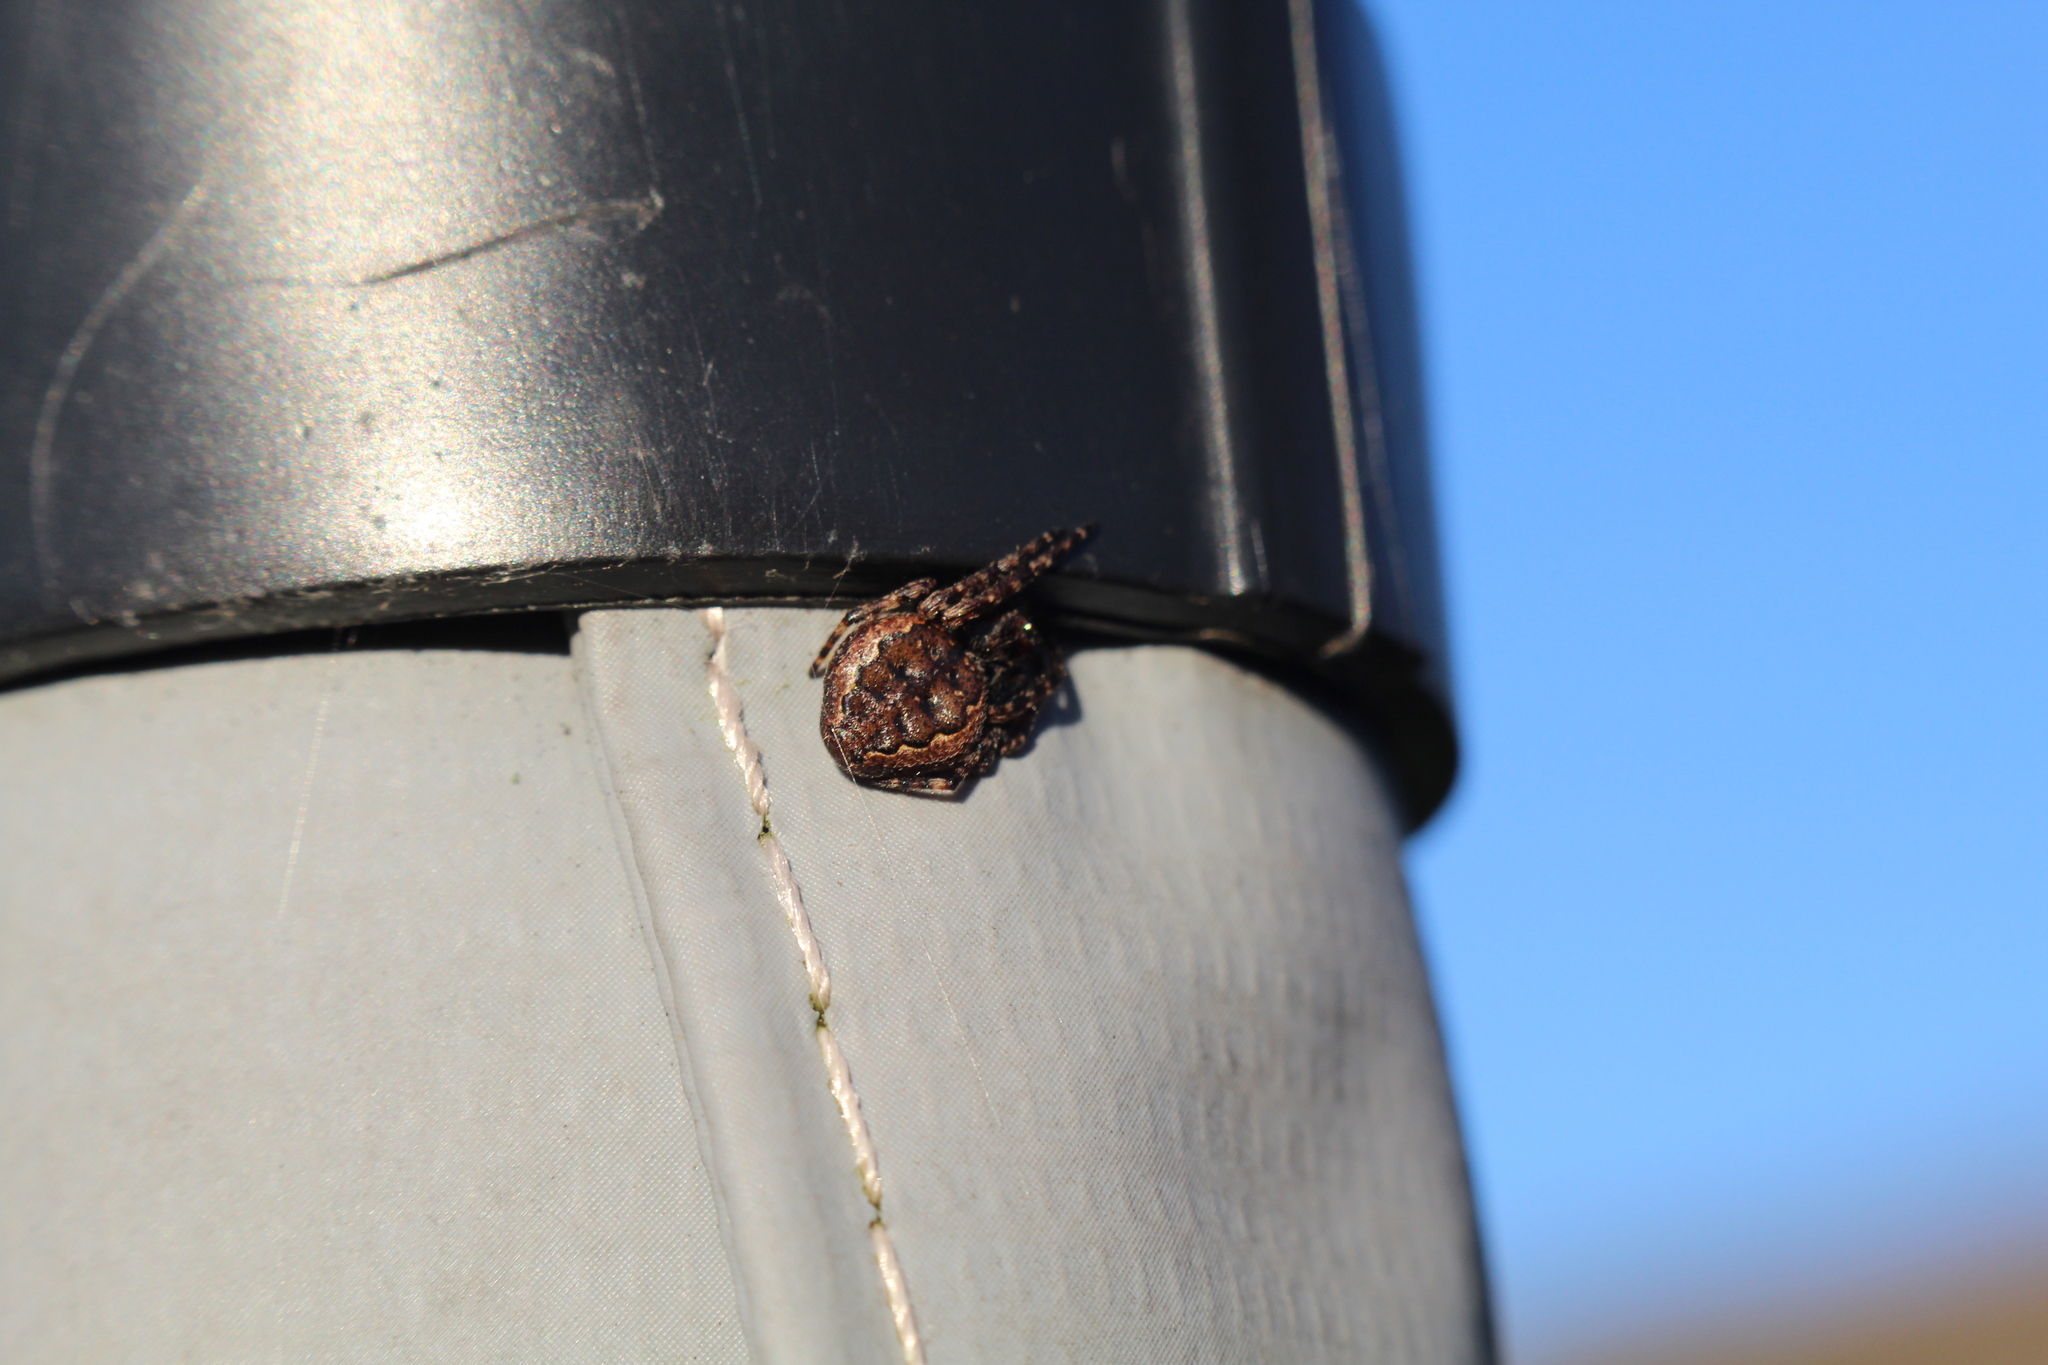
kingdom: Animalia
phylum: Arthropoda
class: Arachnida
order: Araneae
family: Araneidae
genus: Nuctenea
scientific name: Nuctenea umbratica
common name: Toad spider
